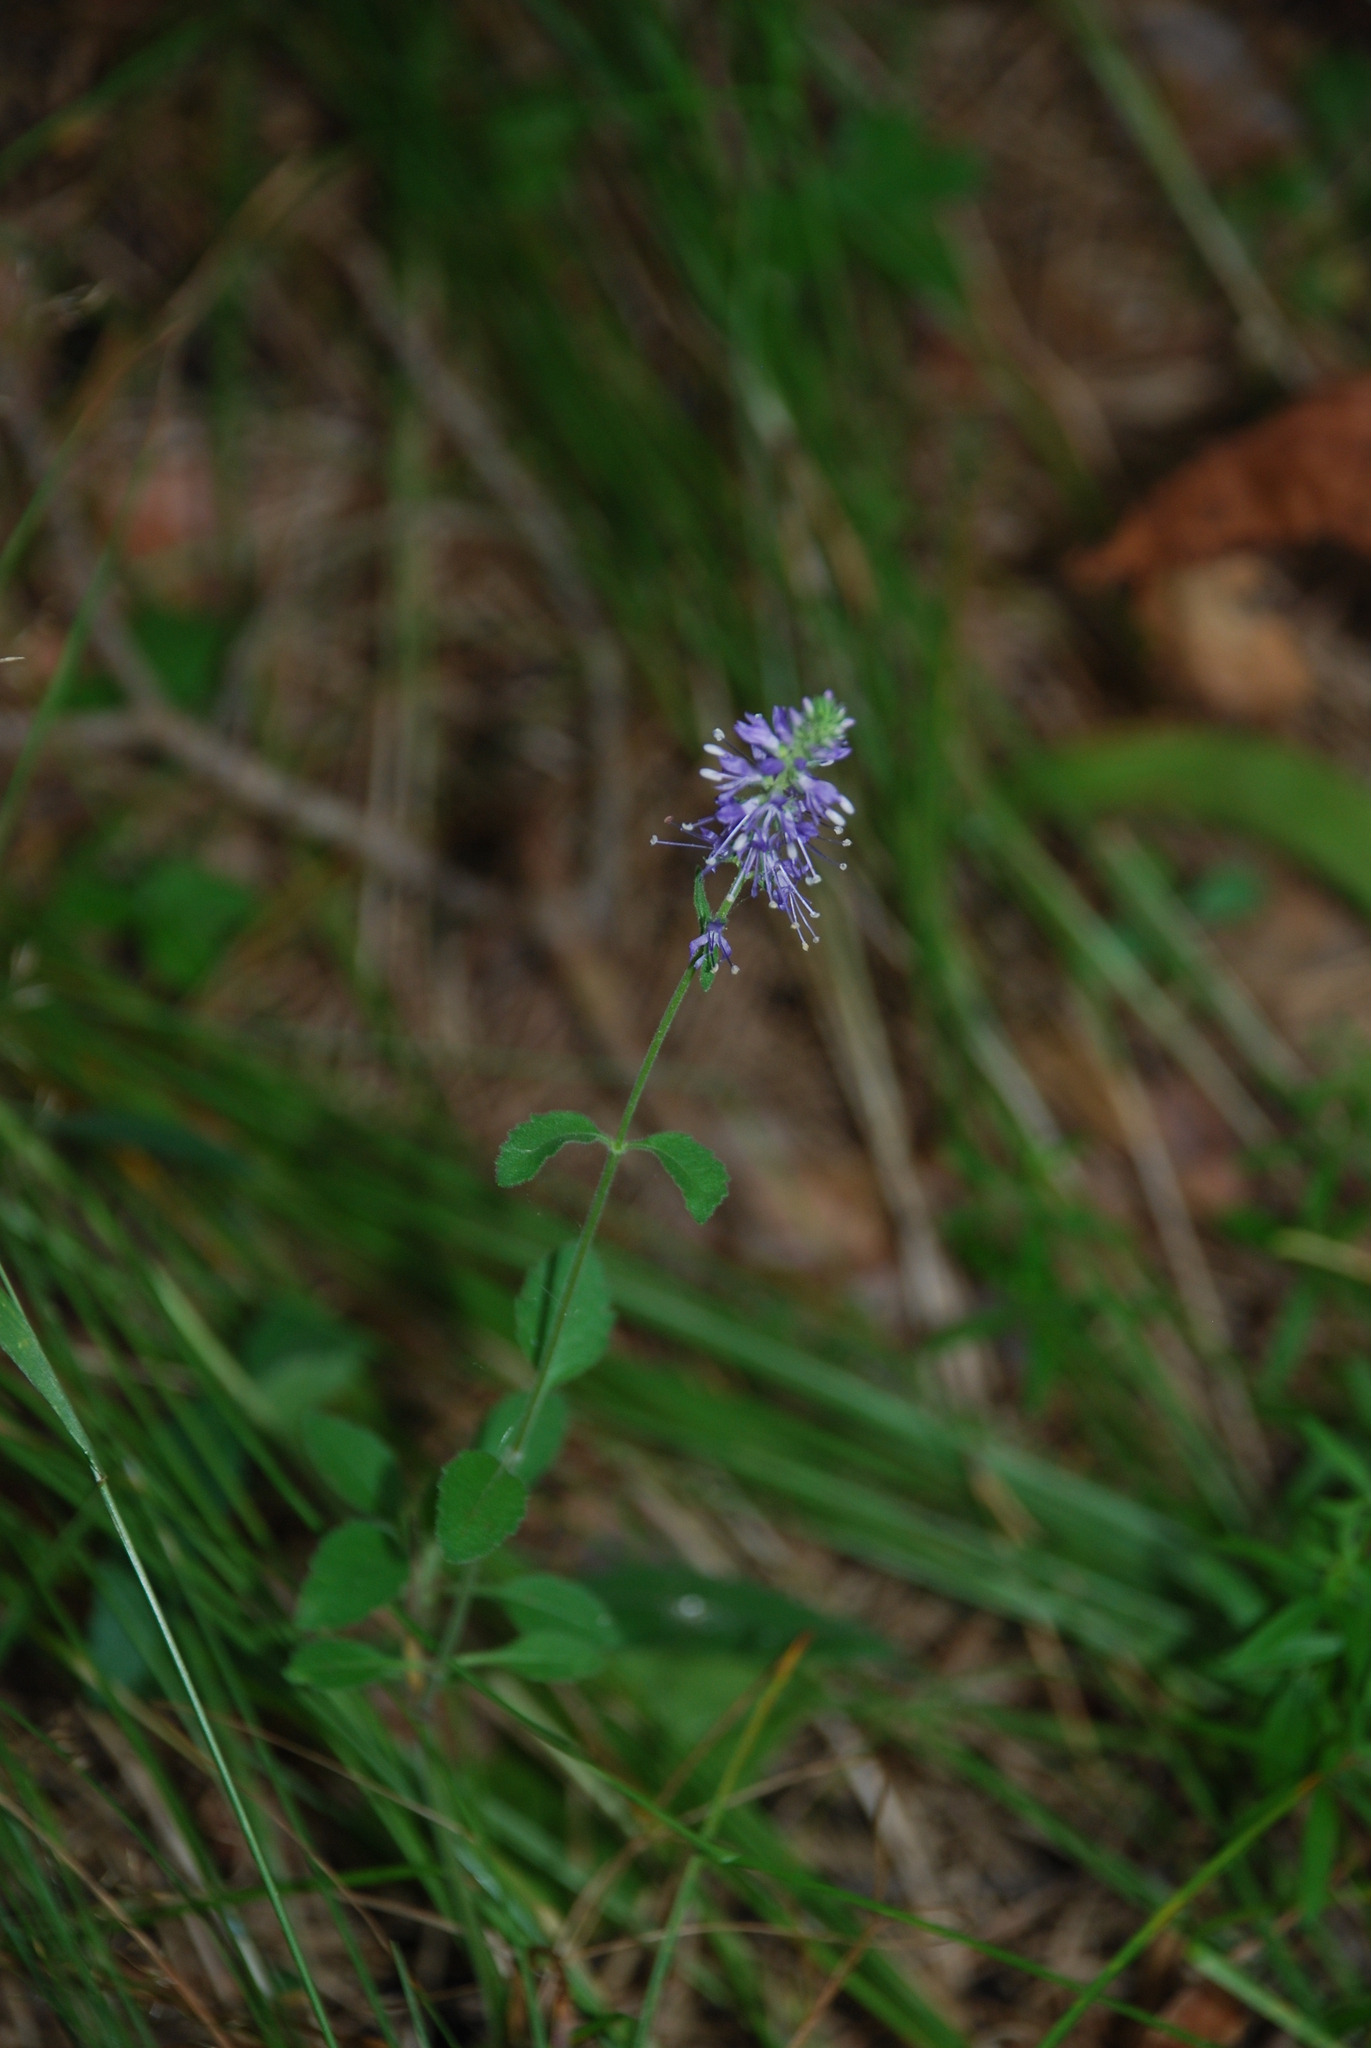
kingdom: Plantae
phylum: Tracheophyta
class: Magnoliopsida
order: Lamiales
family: Plantaginaceae
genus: Veronica
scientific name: Veronica spicata
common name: Spiked speedwell
